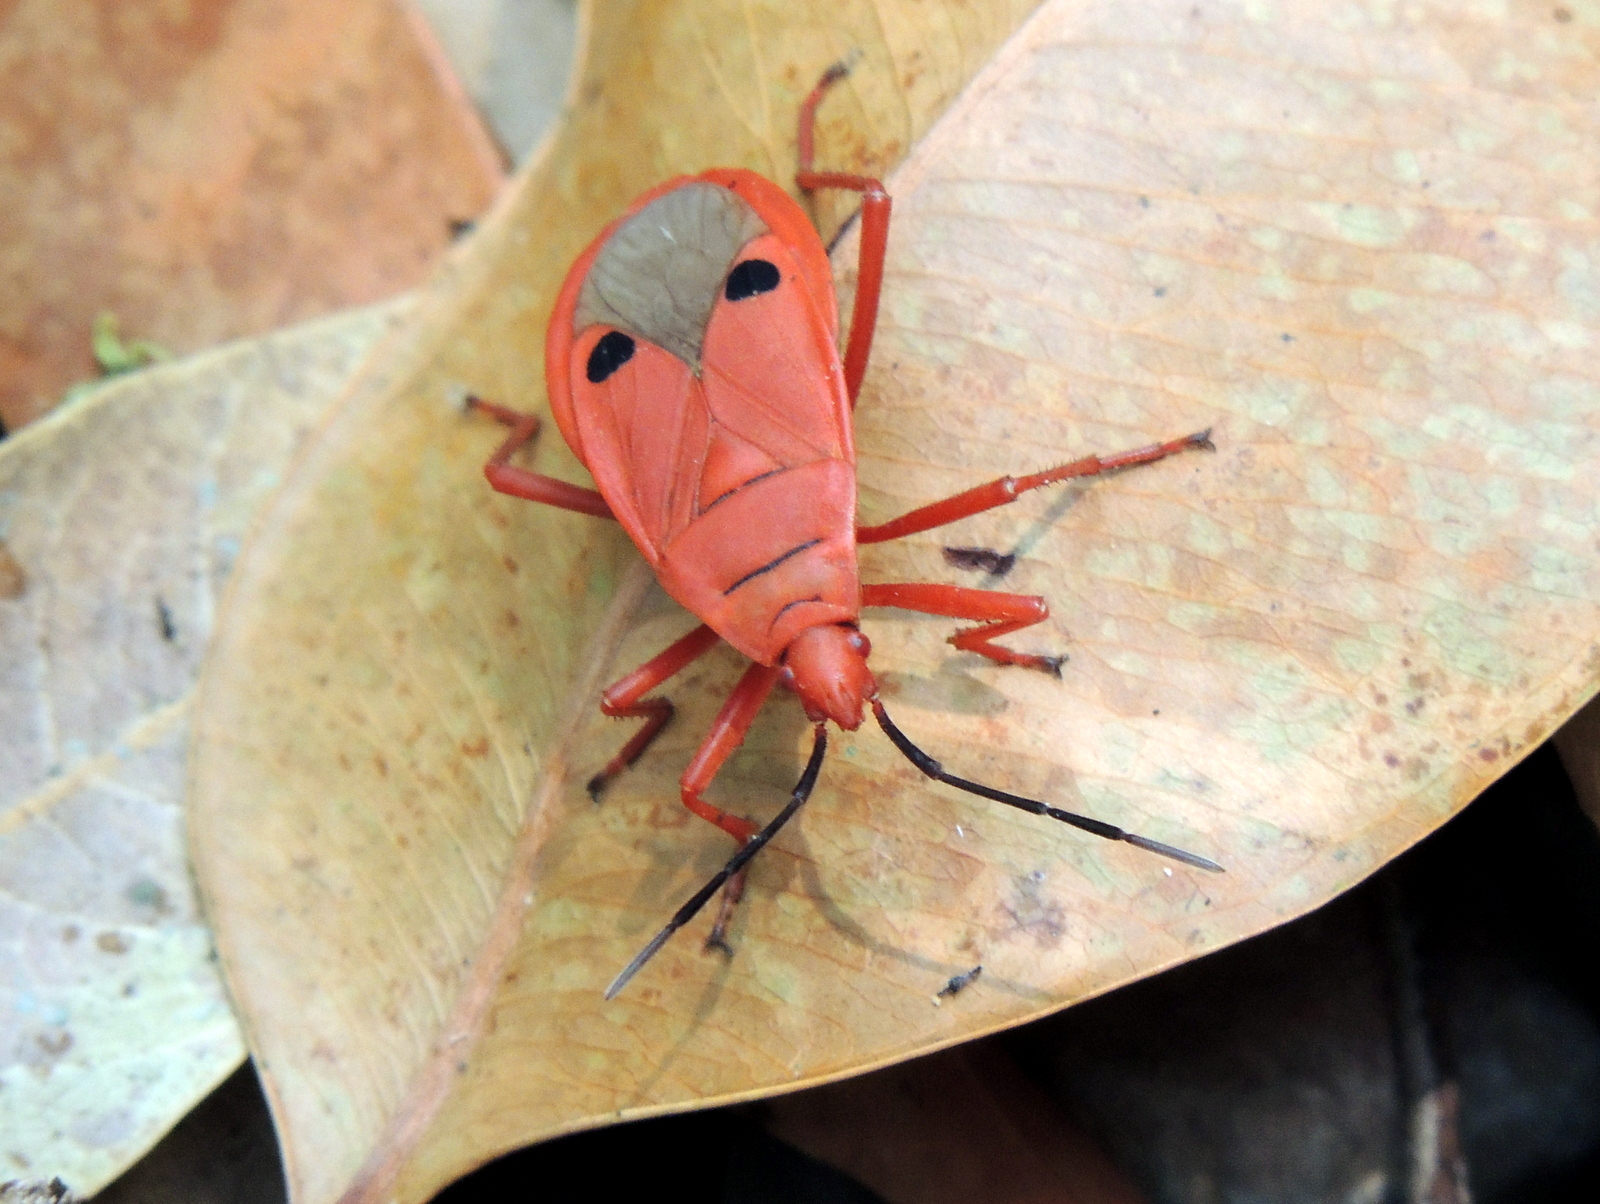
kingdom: Animalia
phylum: Arthropoda
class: Insecta
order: Hemiptera
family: Pyrrhocoridae
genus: Probergrothius
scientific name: Probergrothius nigricornis
